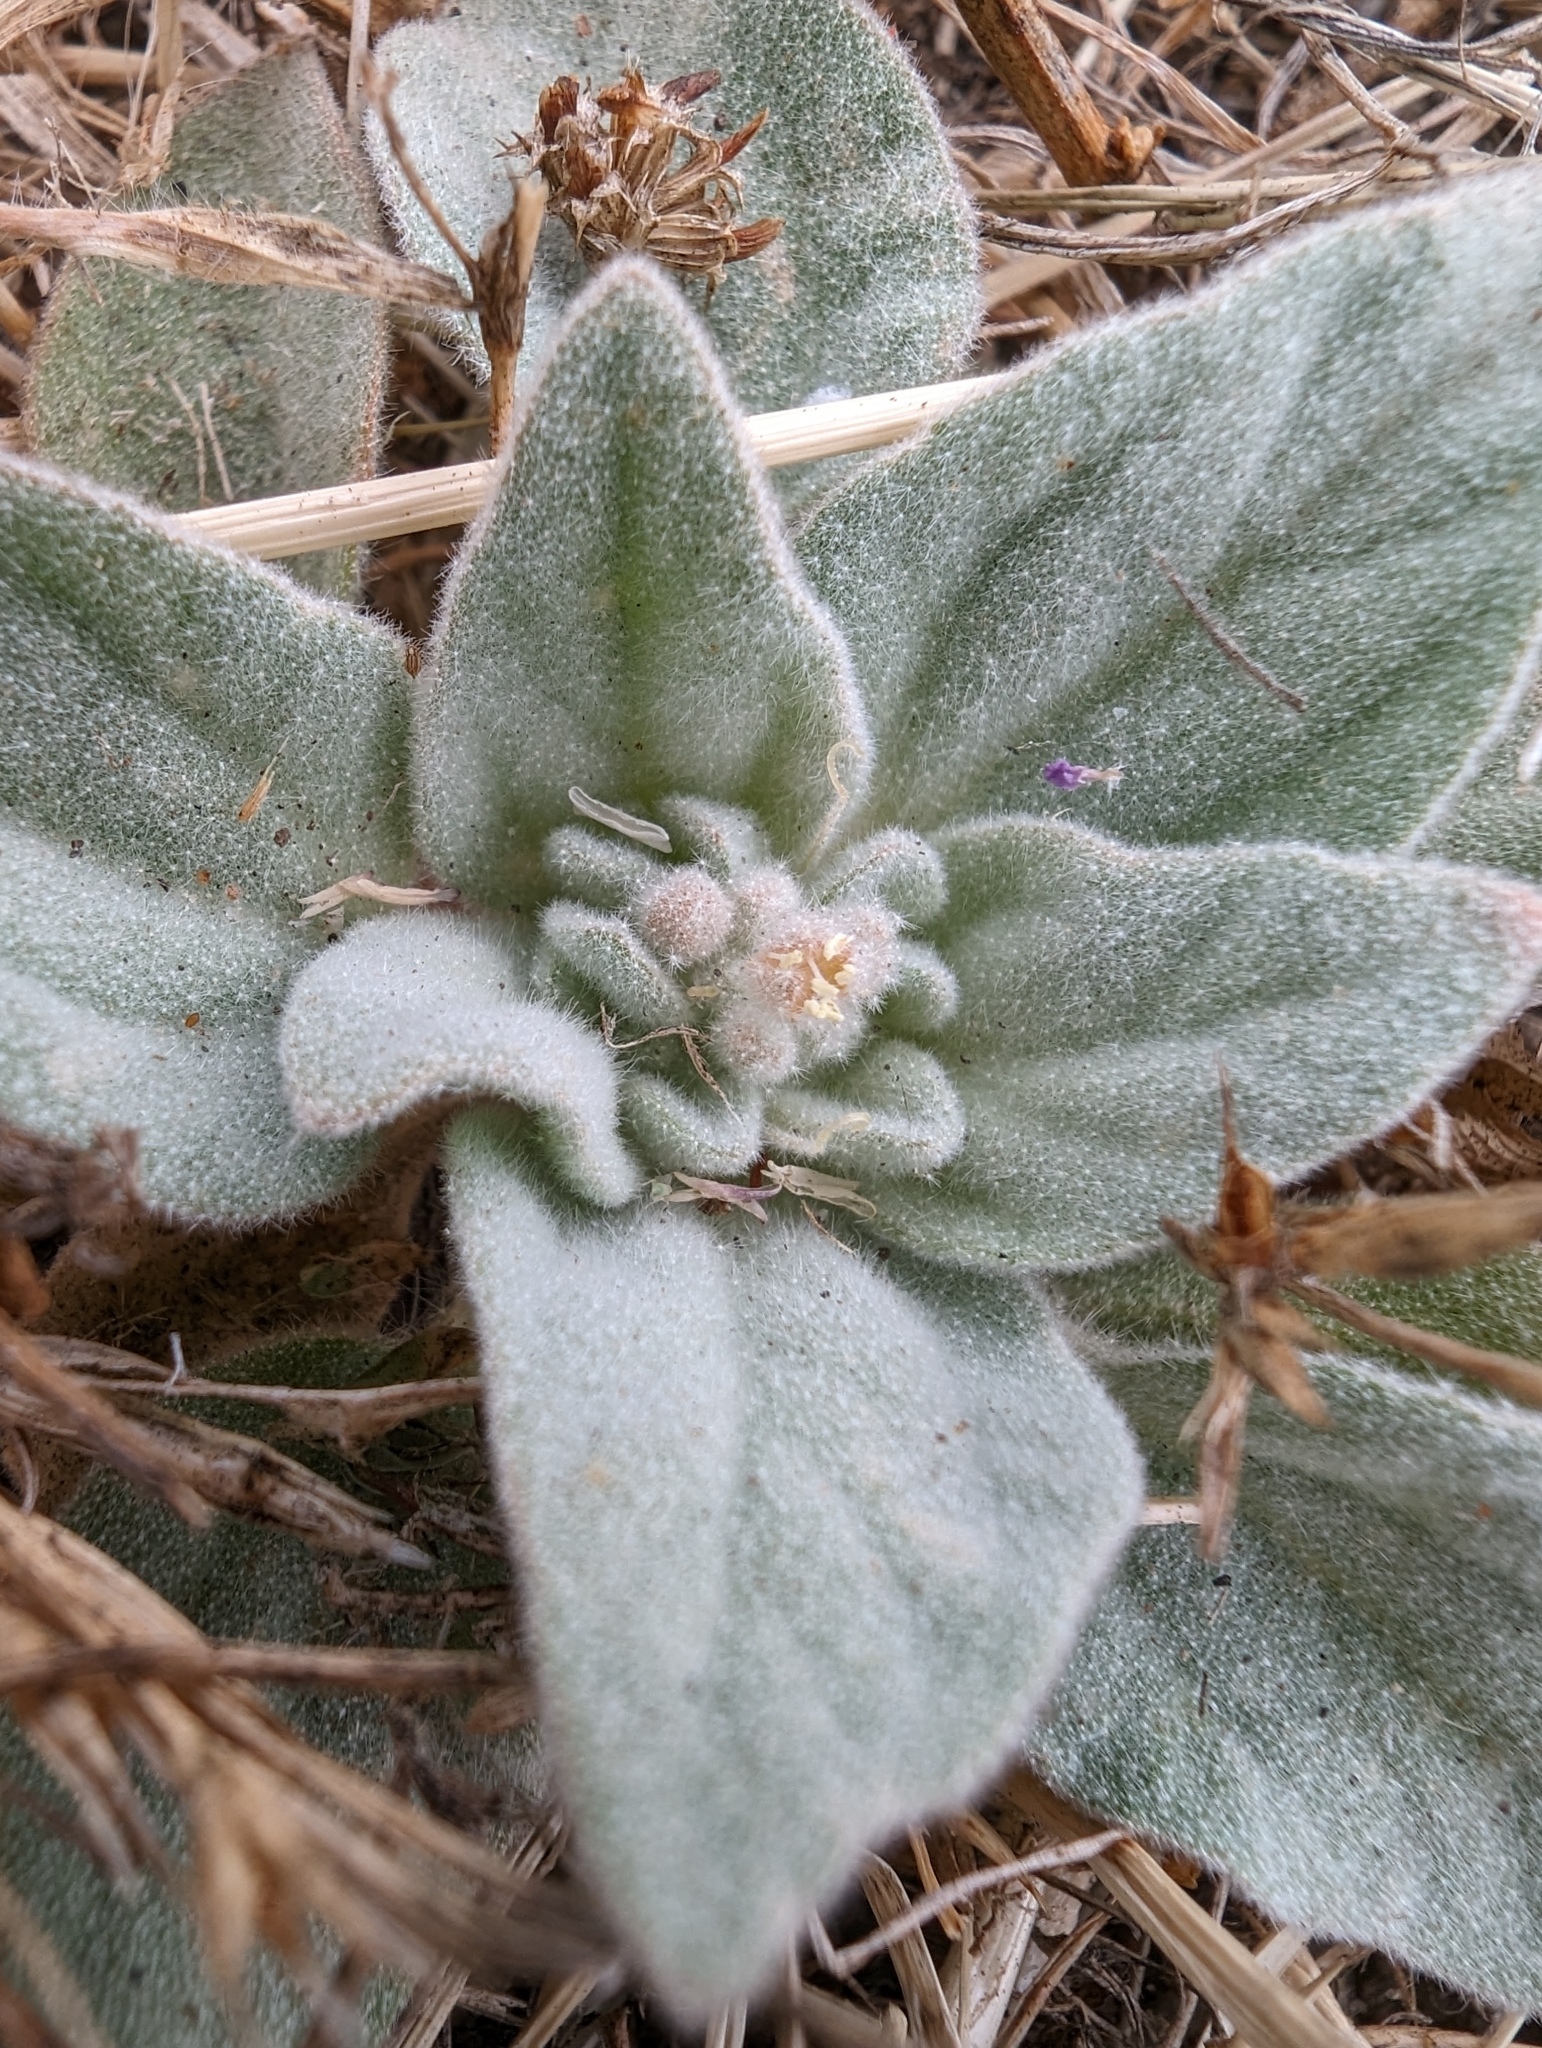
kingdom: Plantae
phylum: Tracheophyta
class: Magnoliopsida
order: Malpighiales
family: Euphorbiaceae
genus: Croton
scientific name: Croton setiger
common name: Dove weed
